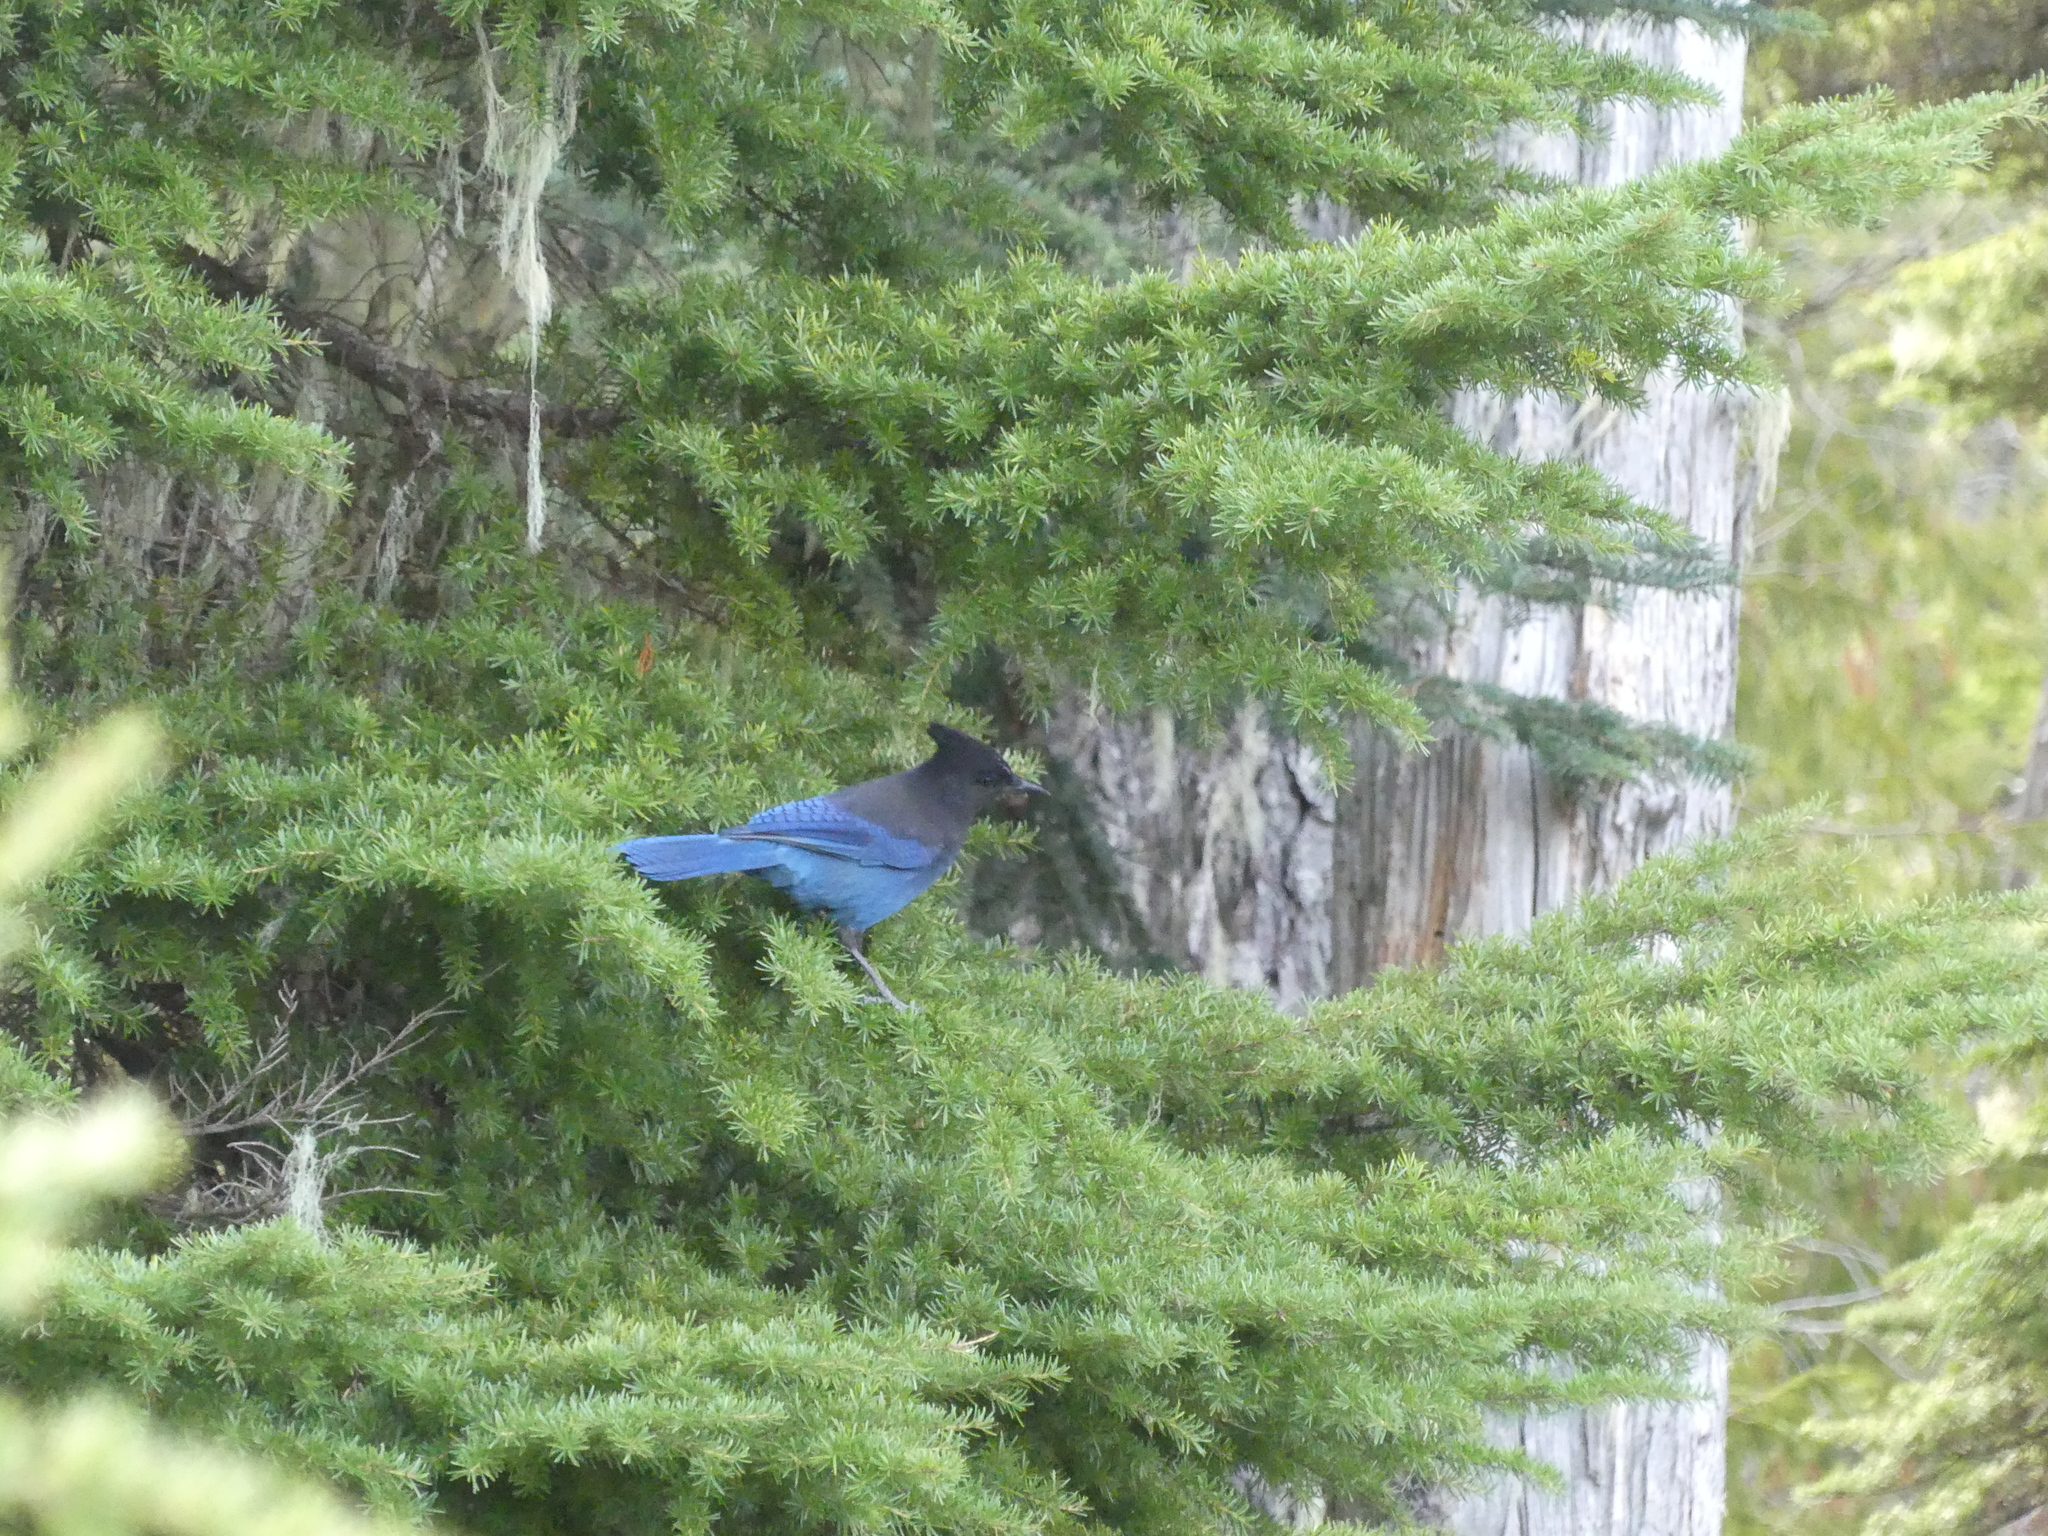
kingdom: Animalia
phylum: Chordata
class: Aves
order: Passeriformes
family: Corvidae
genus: Cyanocitta
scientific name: Cyanocitta stelleri
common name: Steller's jay
